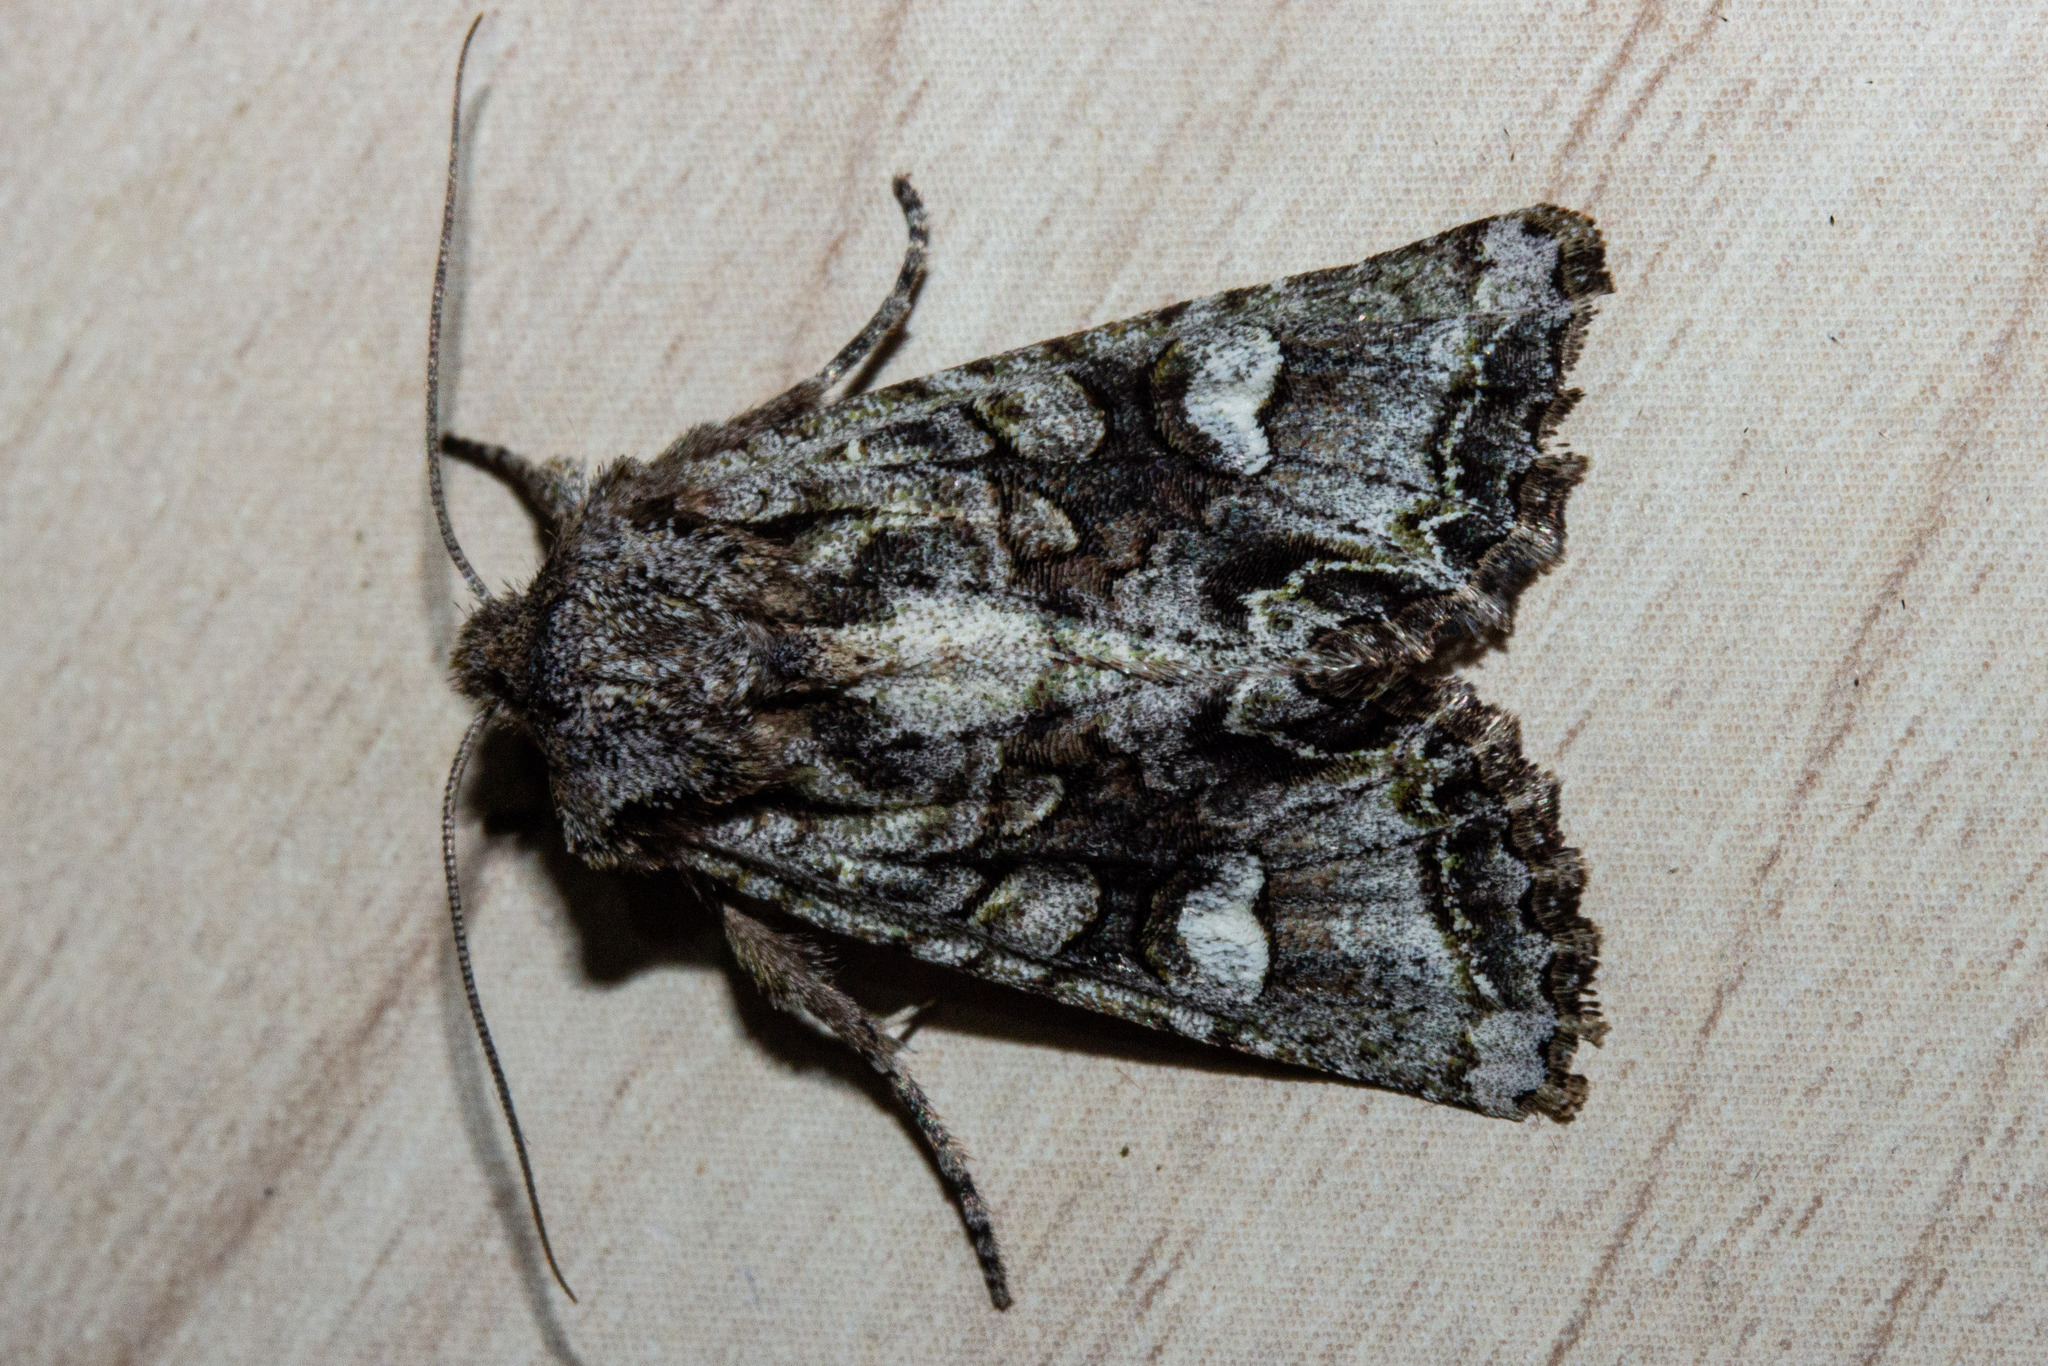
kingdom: Animalia
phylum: Arthropoda
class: Insecta
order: Lepidoptera
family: Noctuidae
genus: Ichneutica
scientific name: Ichneutica skelloni
